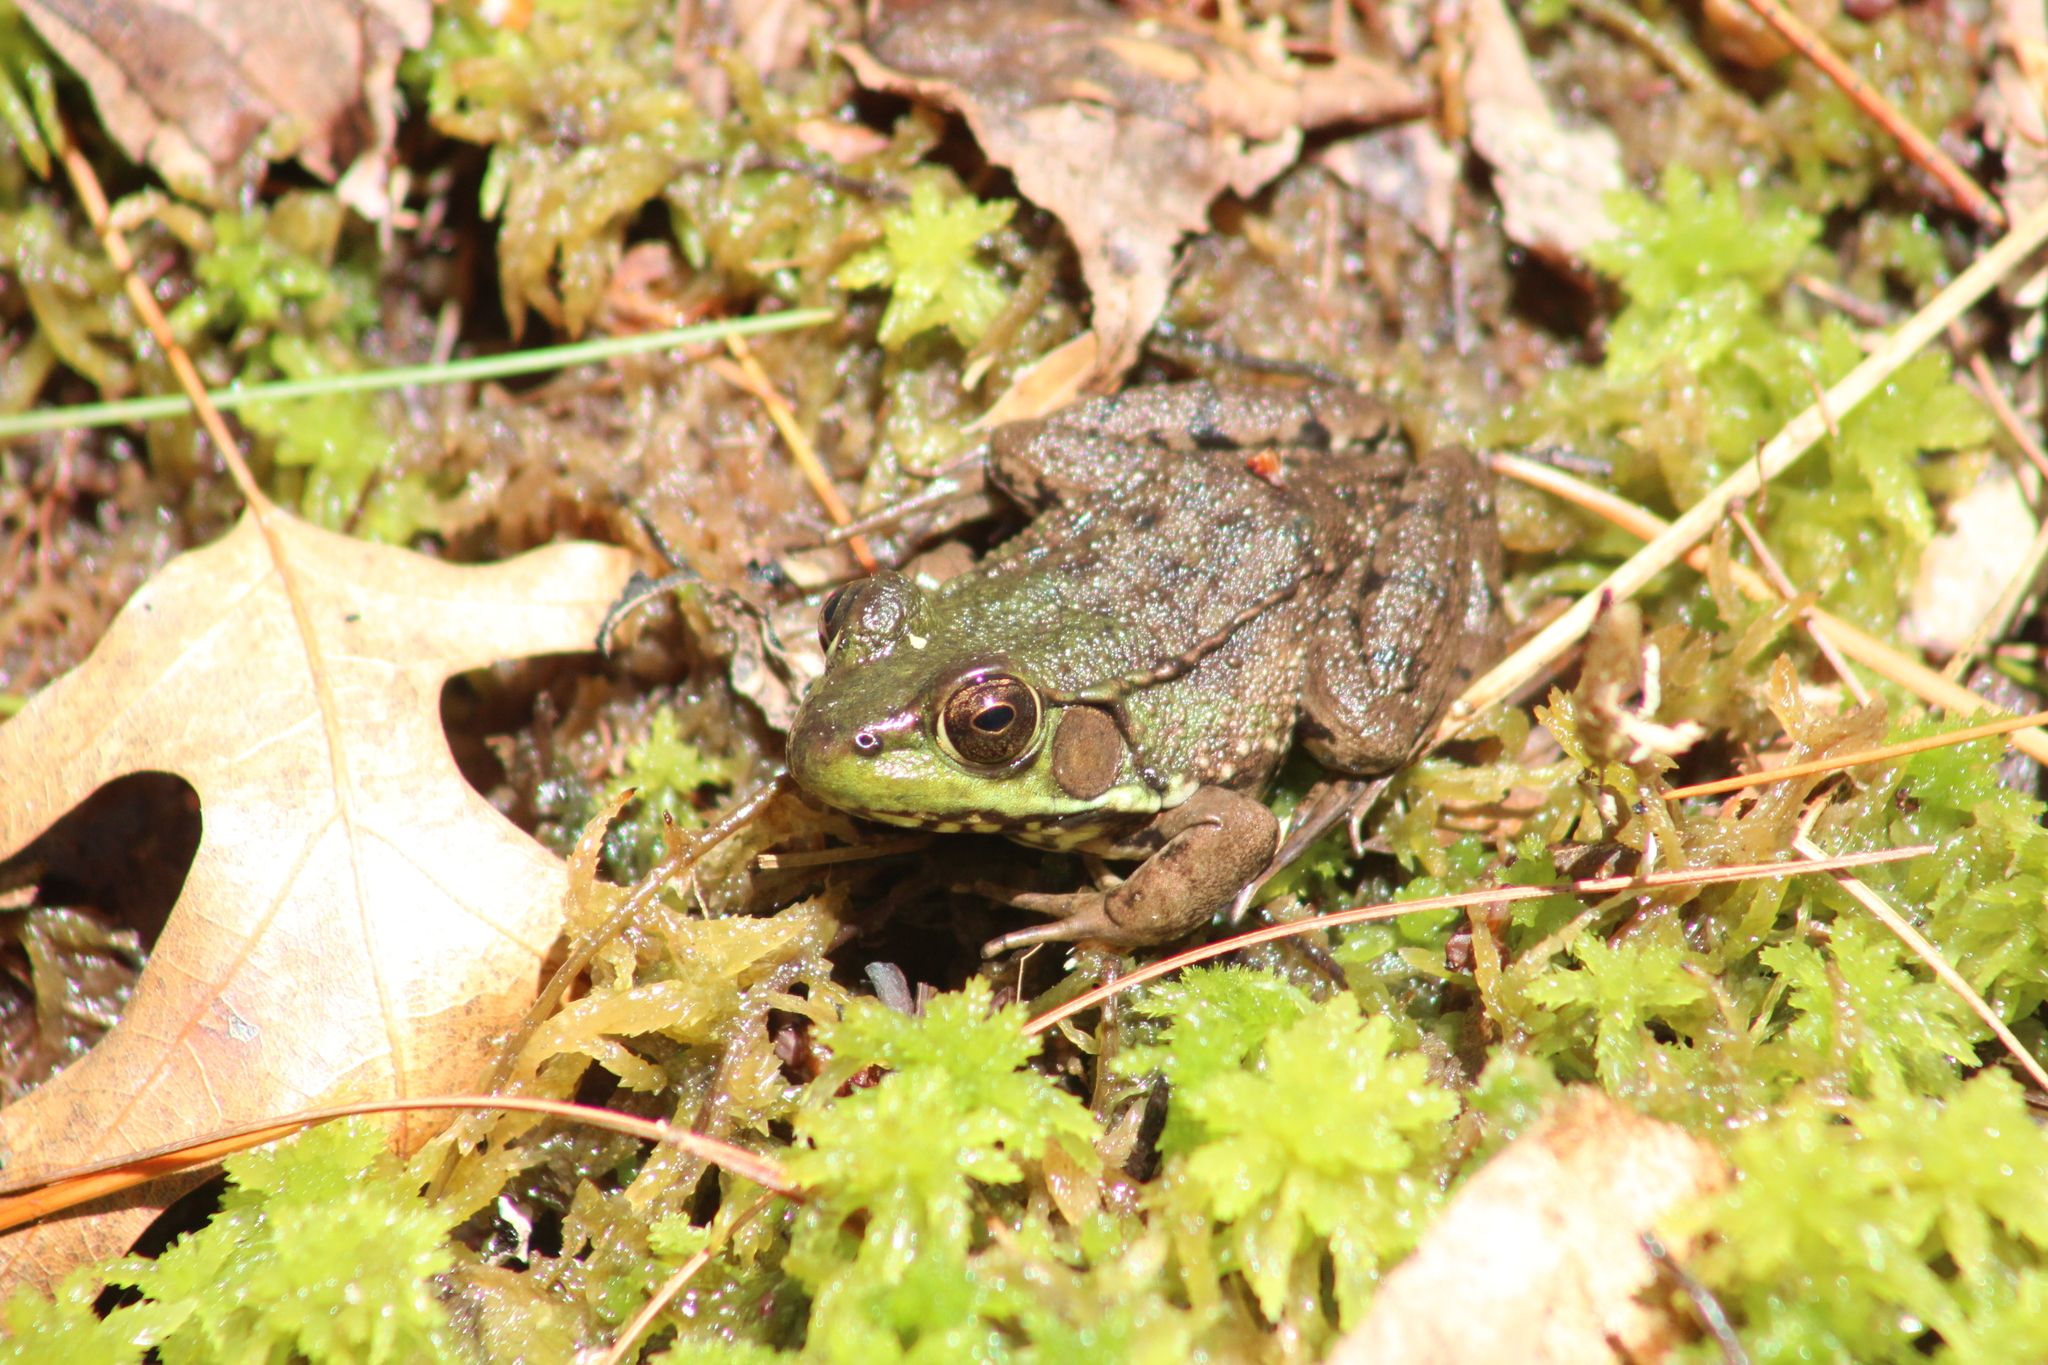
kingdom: Animalia
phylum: Chordata
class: Amphibia
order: Anura
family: Ranidae
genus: Lithobates
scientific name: Lithobates clamitans
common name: Green frog
